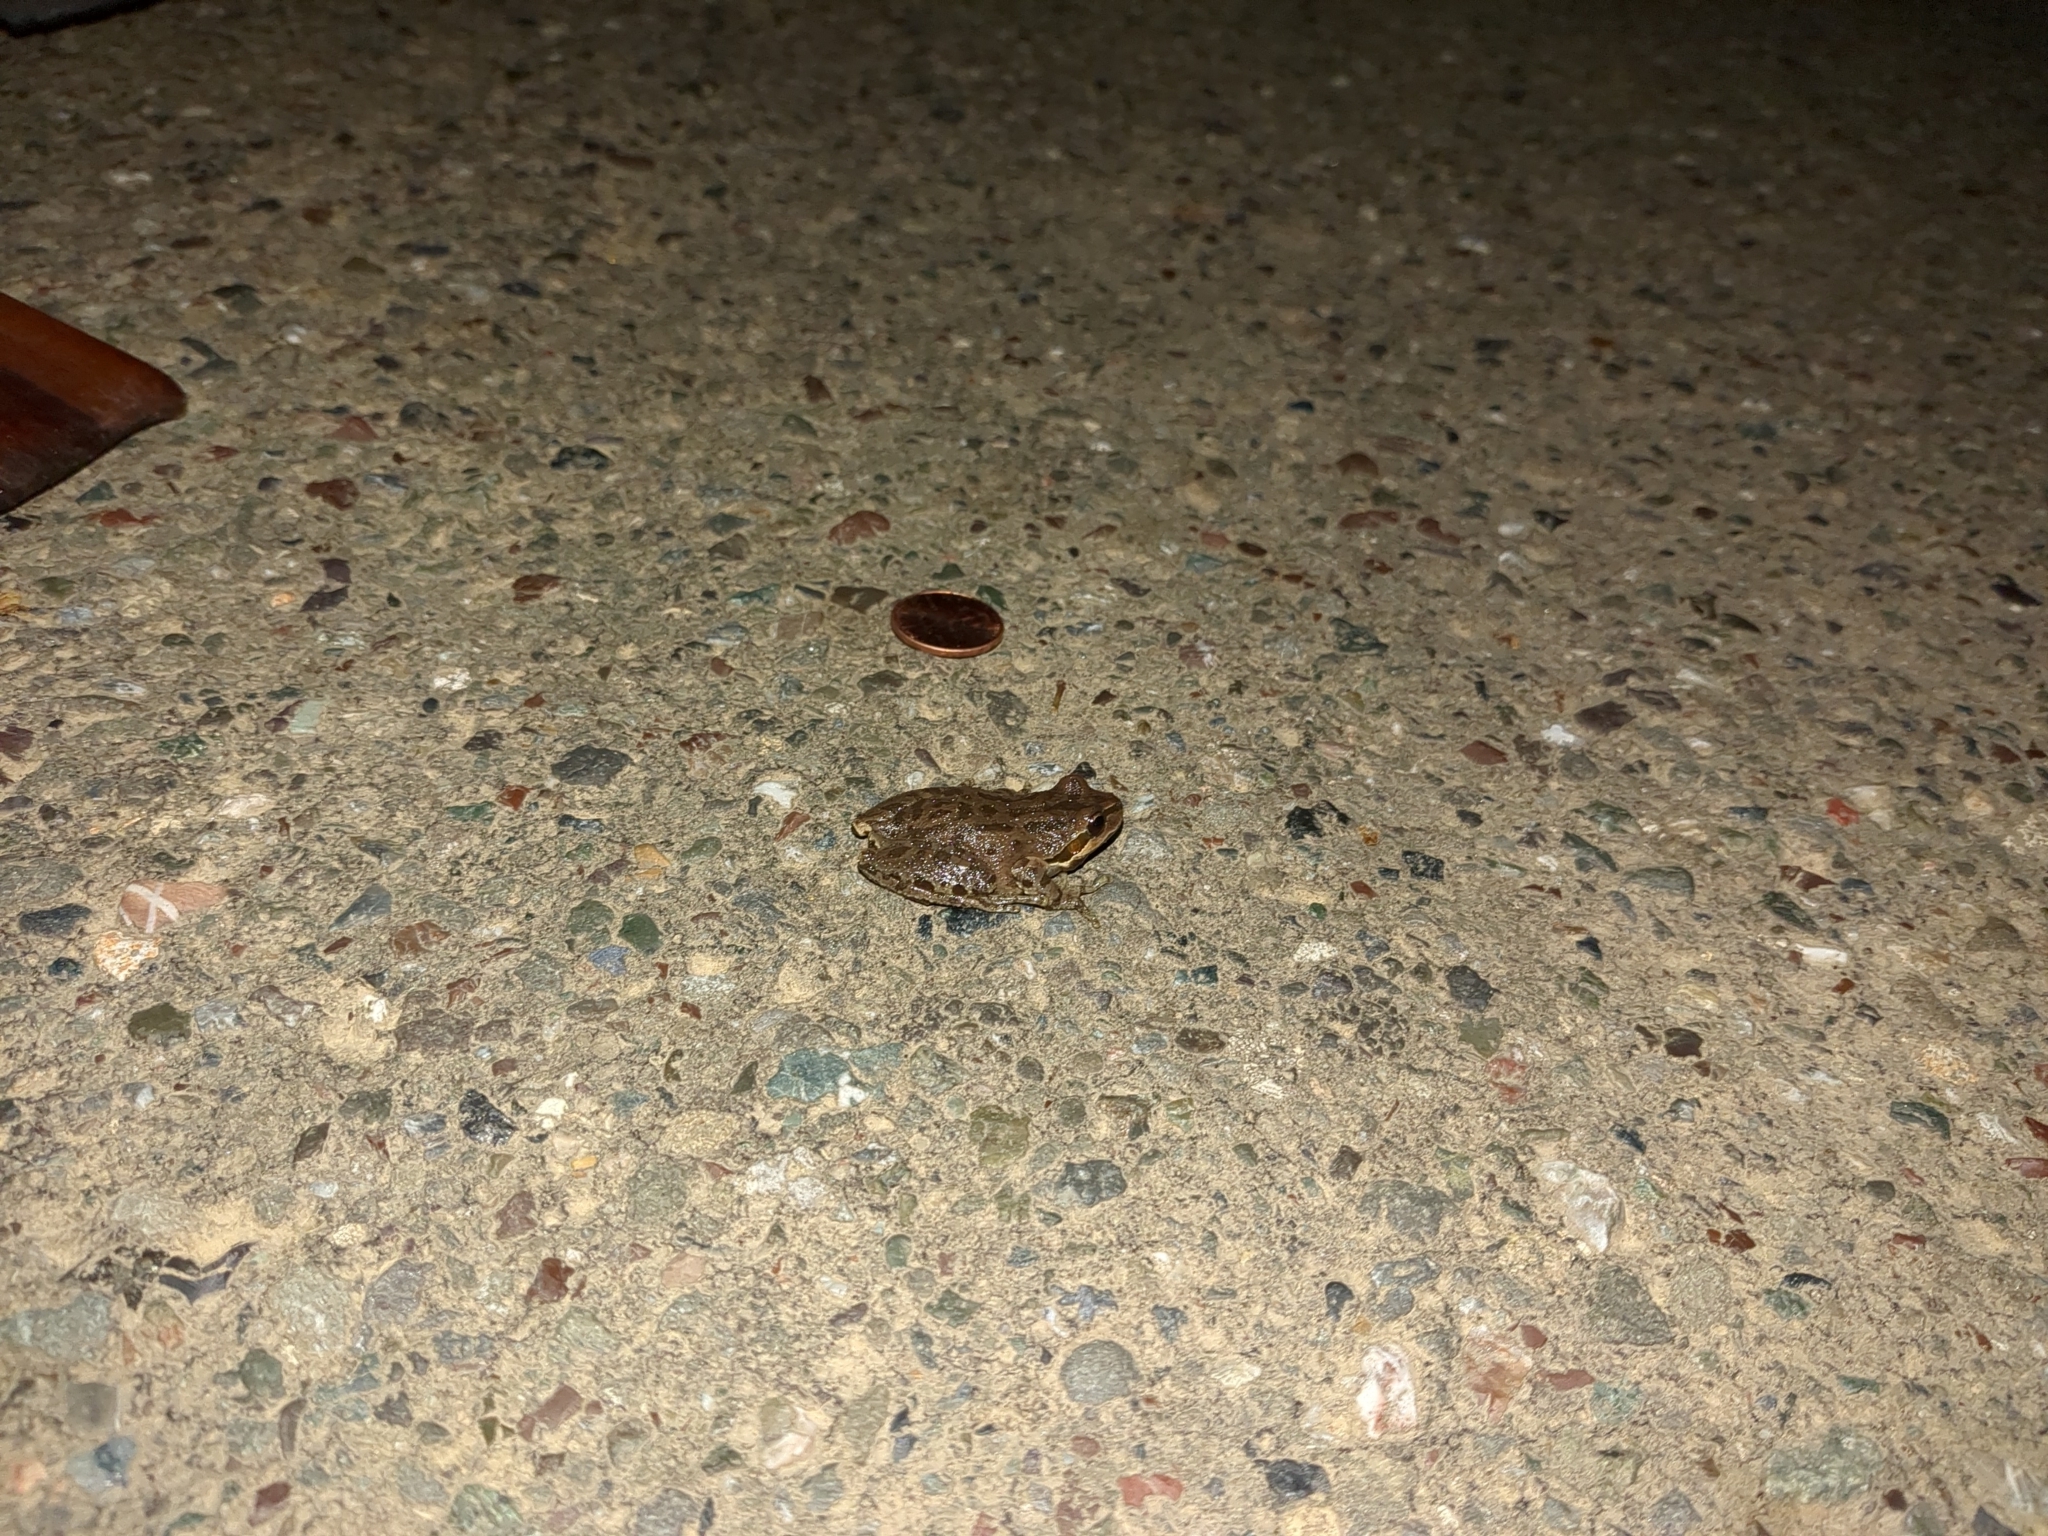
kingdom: Animalia
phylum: Chordata
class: Amphibia
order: Anura
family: Hylidae
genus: Pseudacris
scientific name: Pseudacris regilla
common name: Pacific chorus frog
